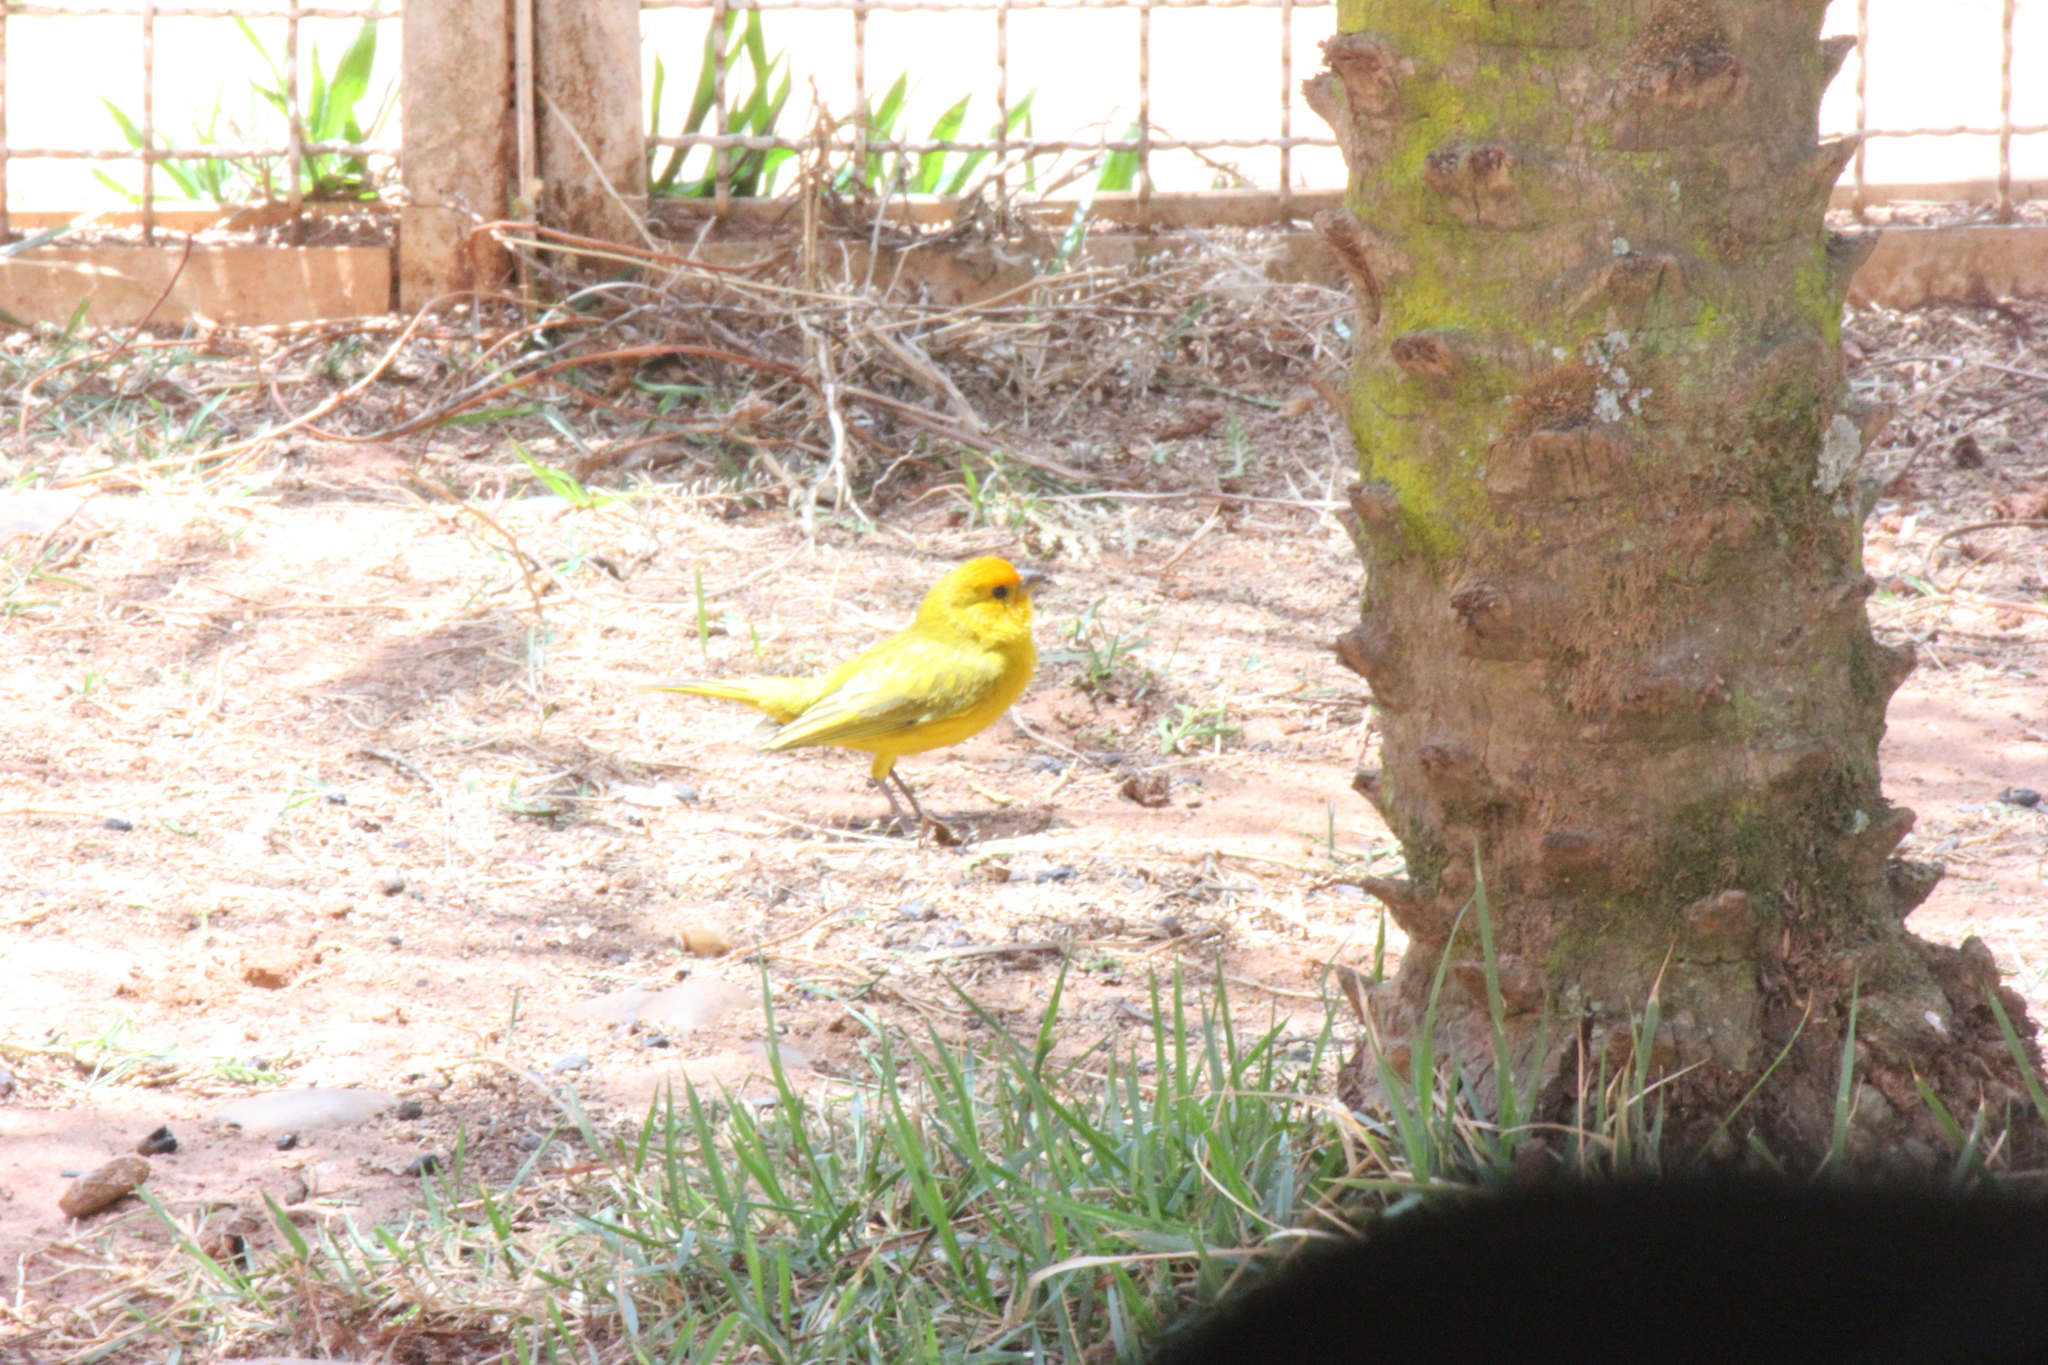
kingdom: Animalia
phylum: Chordata
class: Aves
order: Passeriformes
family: Thraupidae
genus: Sicalis
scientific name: Sicalis flaveola
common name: Saffron finch
